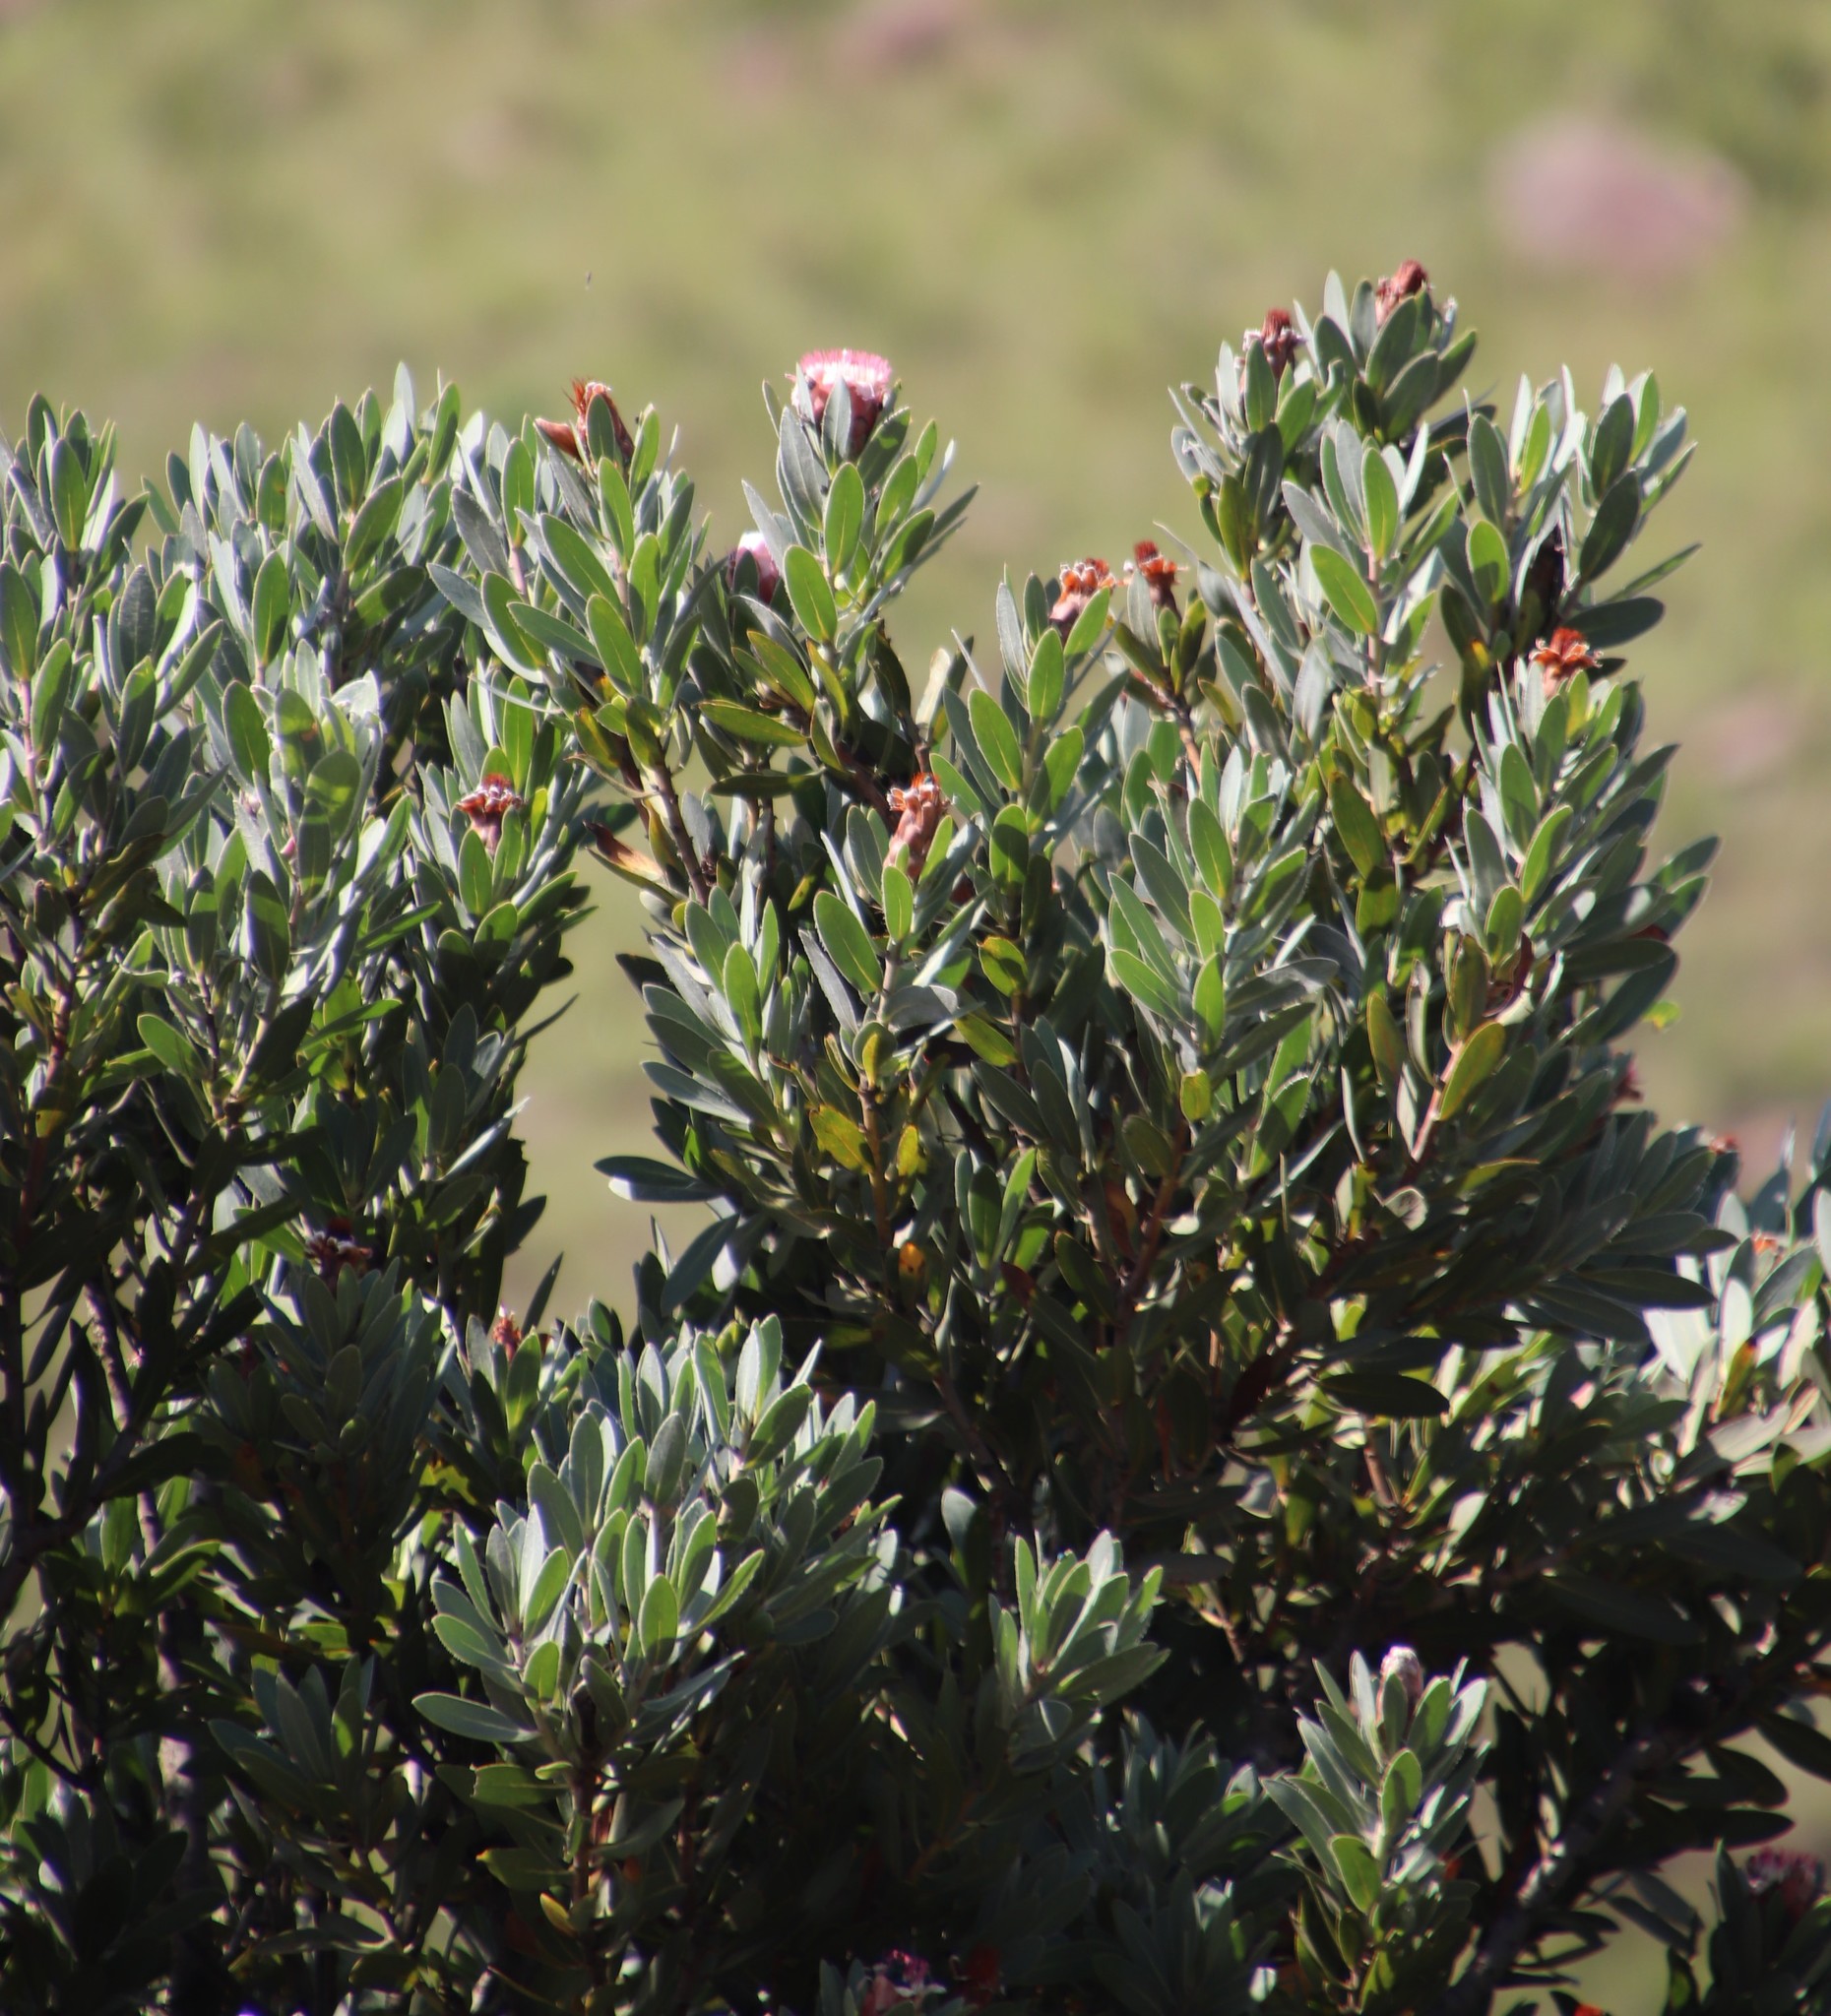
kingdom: Plantae
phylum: Tracheophyta
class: Magnoliopsida
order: Proteales
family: Proteaceae
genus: Protea
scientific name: Protea subvestita
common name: Lip-flower sugarbush
